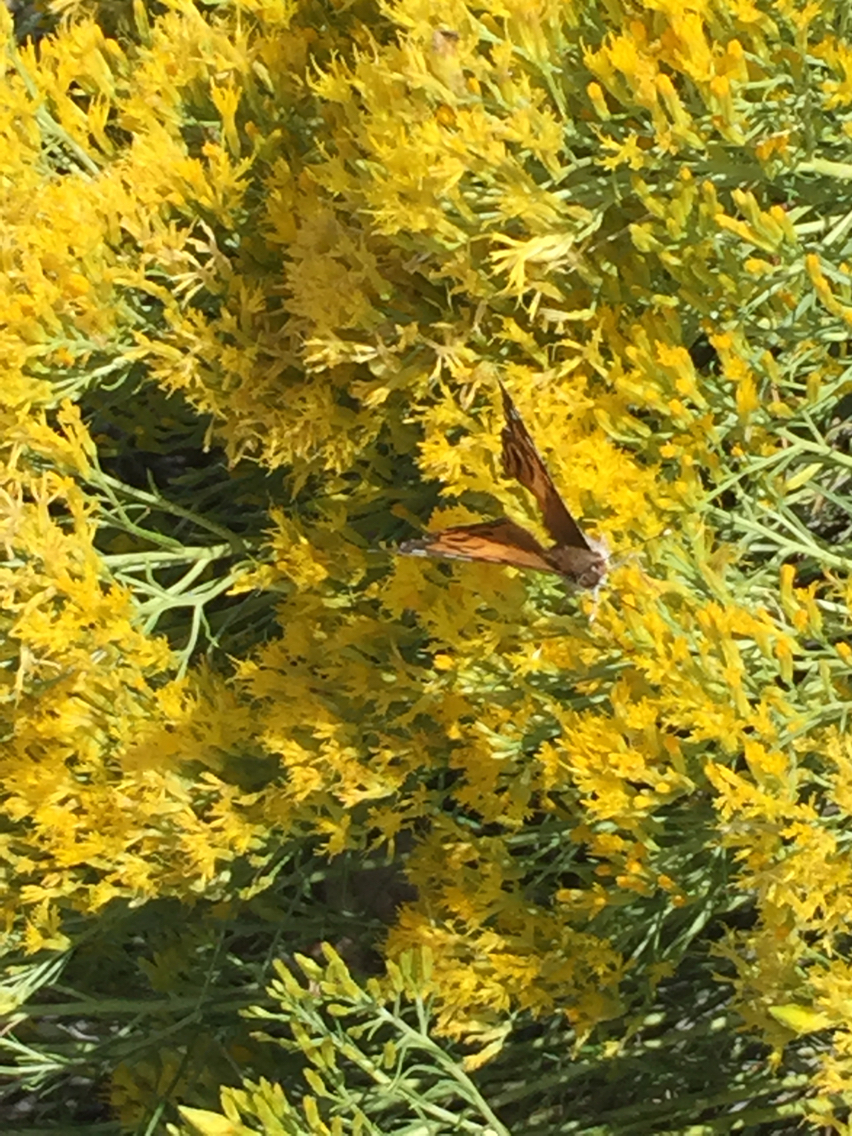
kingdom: Animalia
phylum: Arthropoda
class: Insecta
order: Lepidoptera
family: Nymphalidae
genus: Vanessa
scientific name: Vanessa virginiensis
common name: American lady
